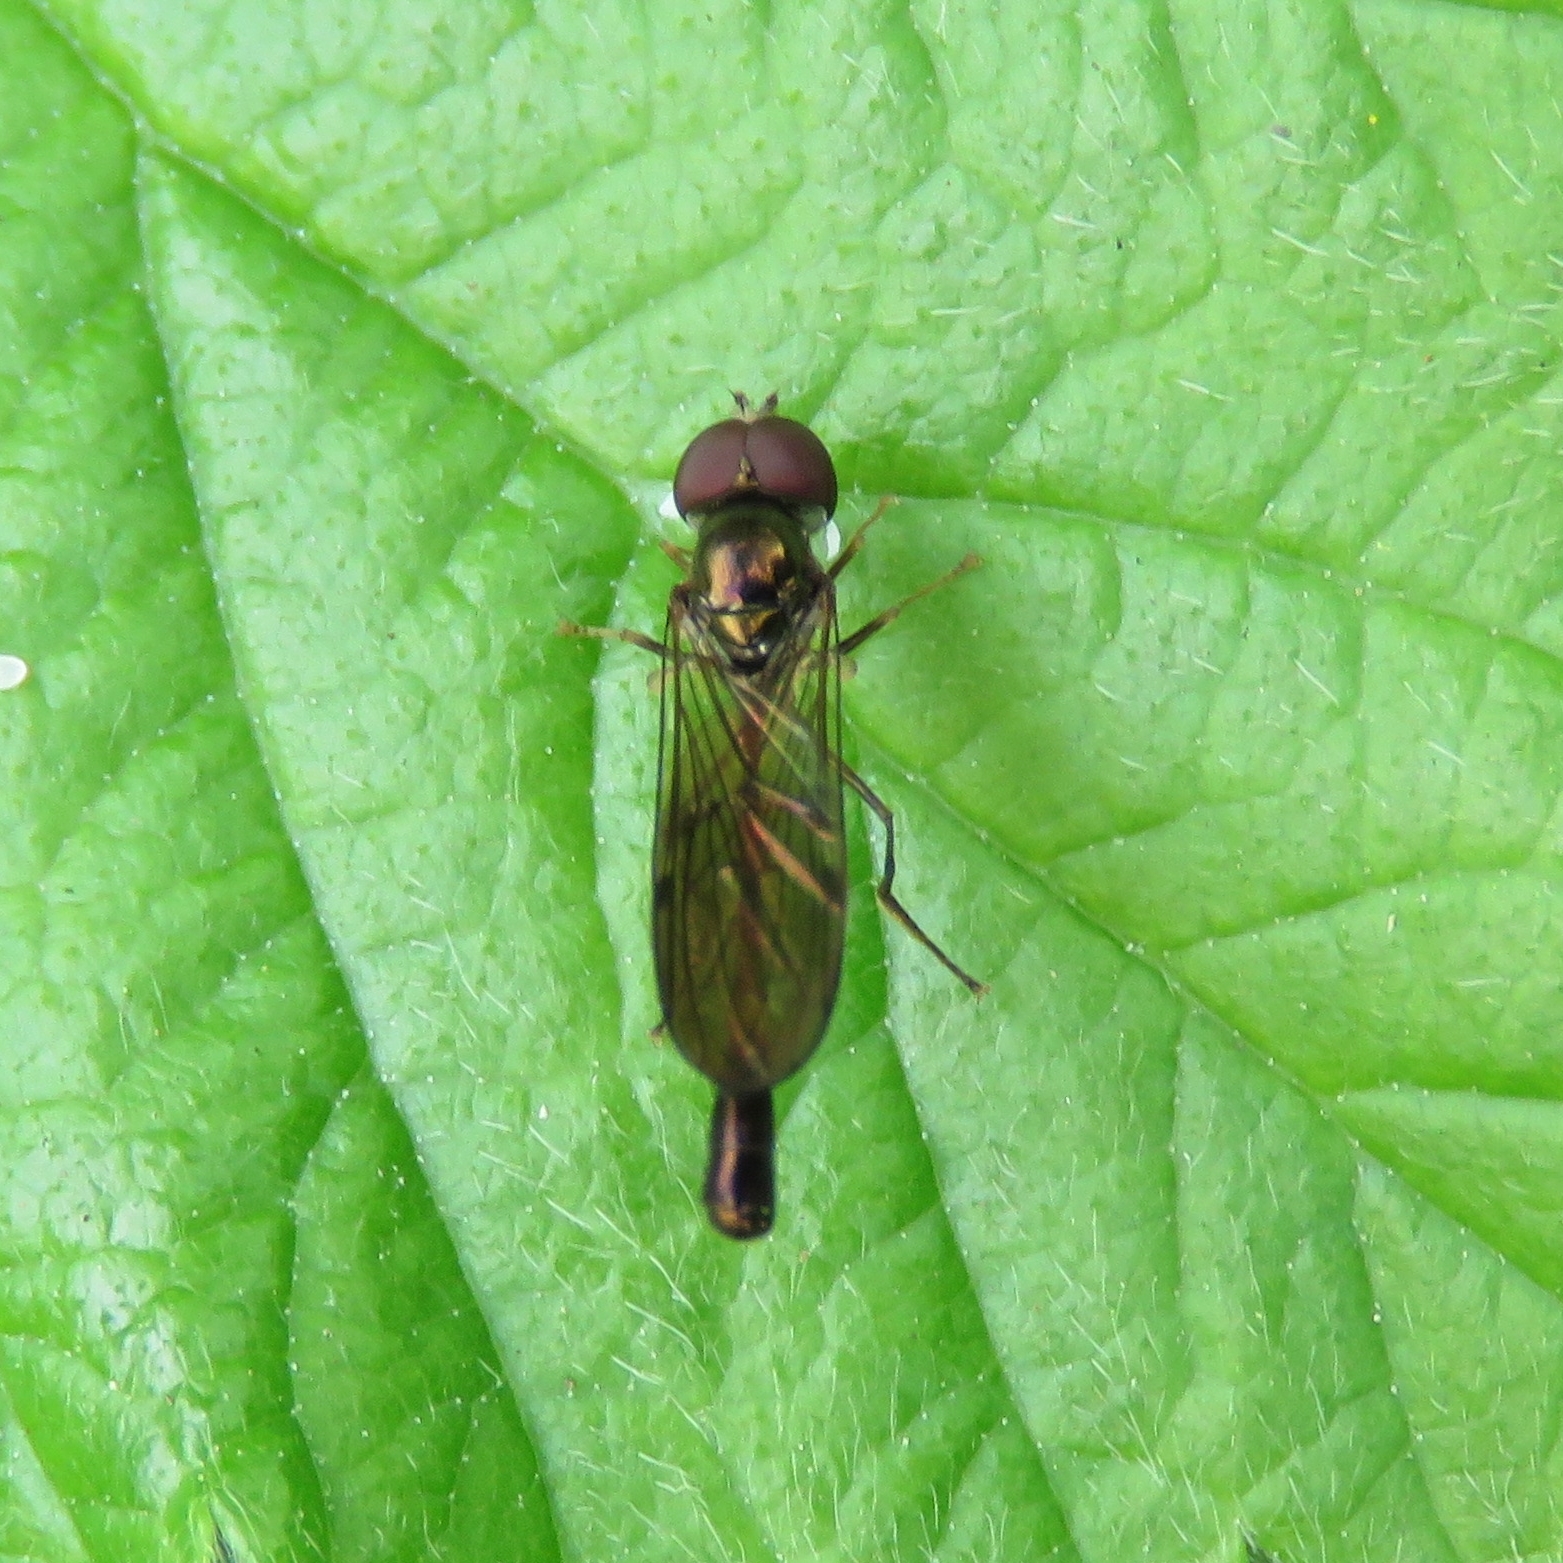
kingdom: Animalia
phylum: Arthropoda
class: Insecta
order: Diptera
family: Syrphidae
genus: Baccha
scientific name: Baccha elongata
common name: Common dainty
